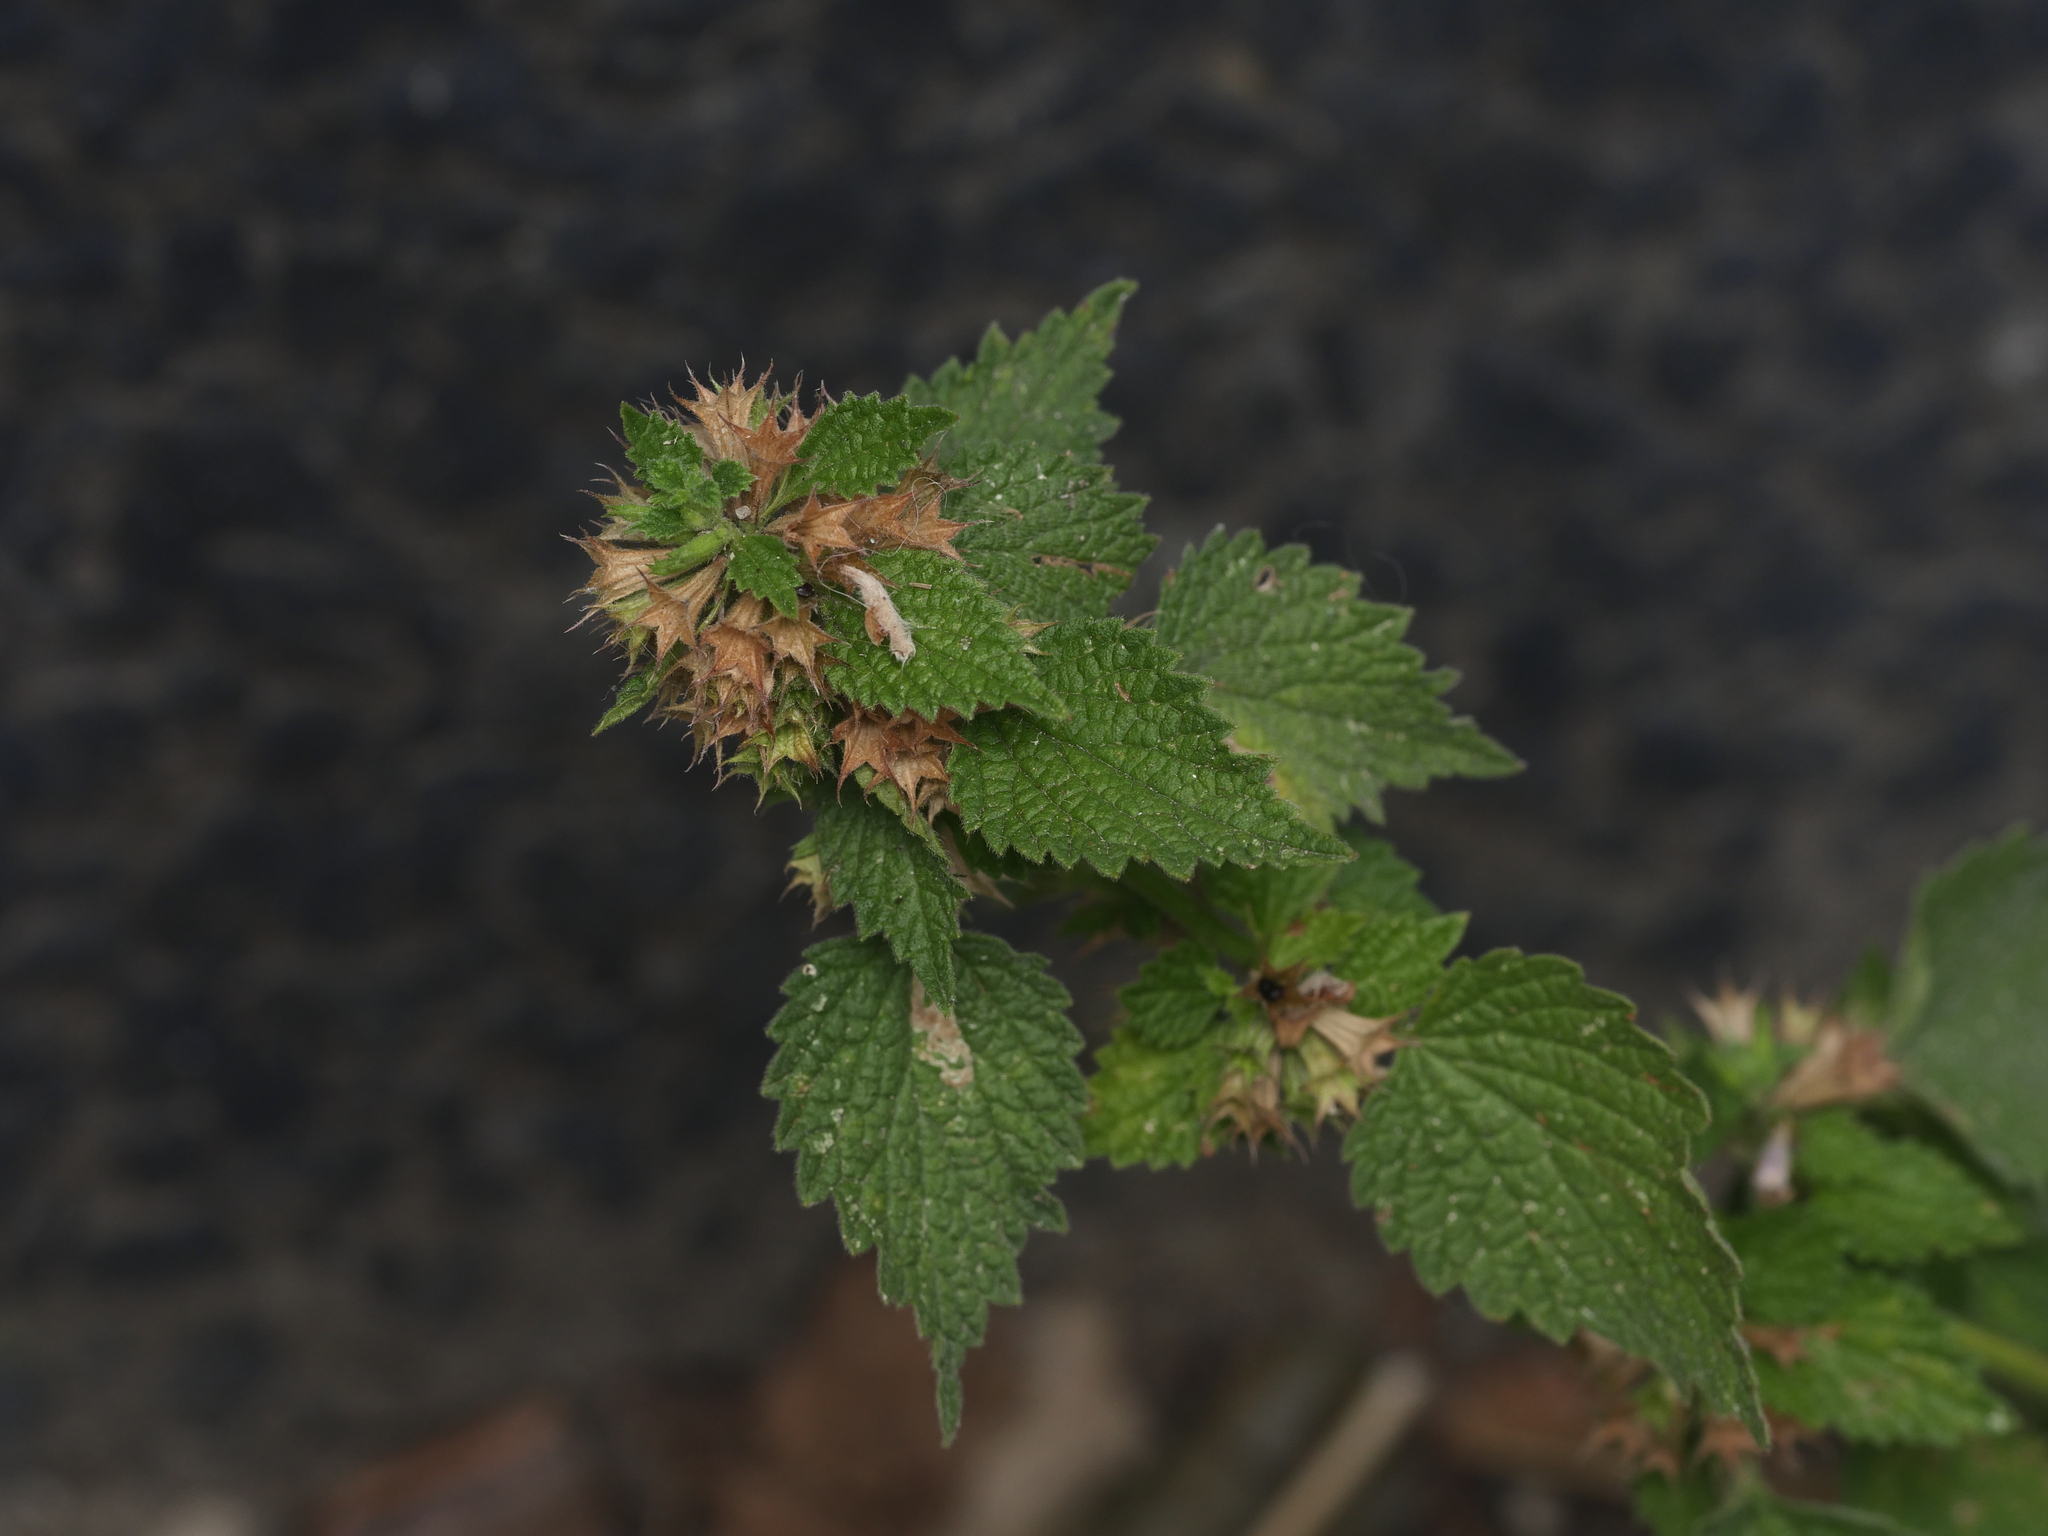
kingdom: Plantae
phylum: Tracheophyta
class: Magnoliopsida
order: Lamiales
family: Lamiaceae
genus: Ballota
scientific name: Ballota nigra
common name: Black horehound
